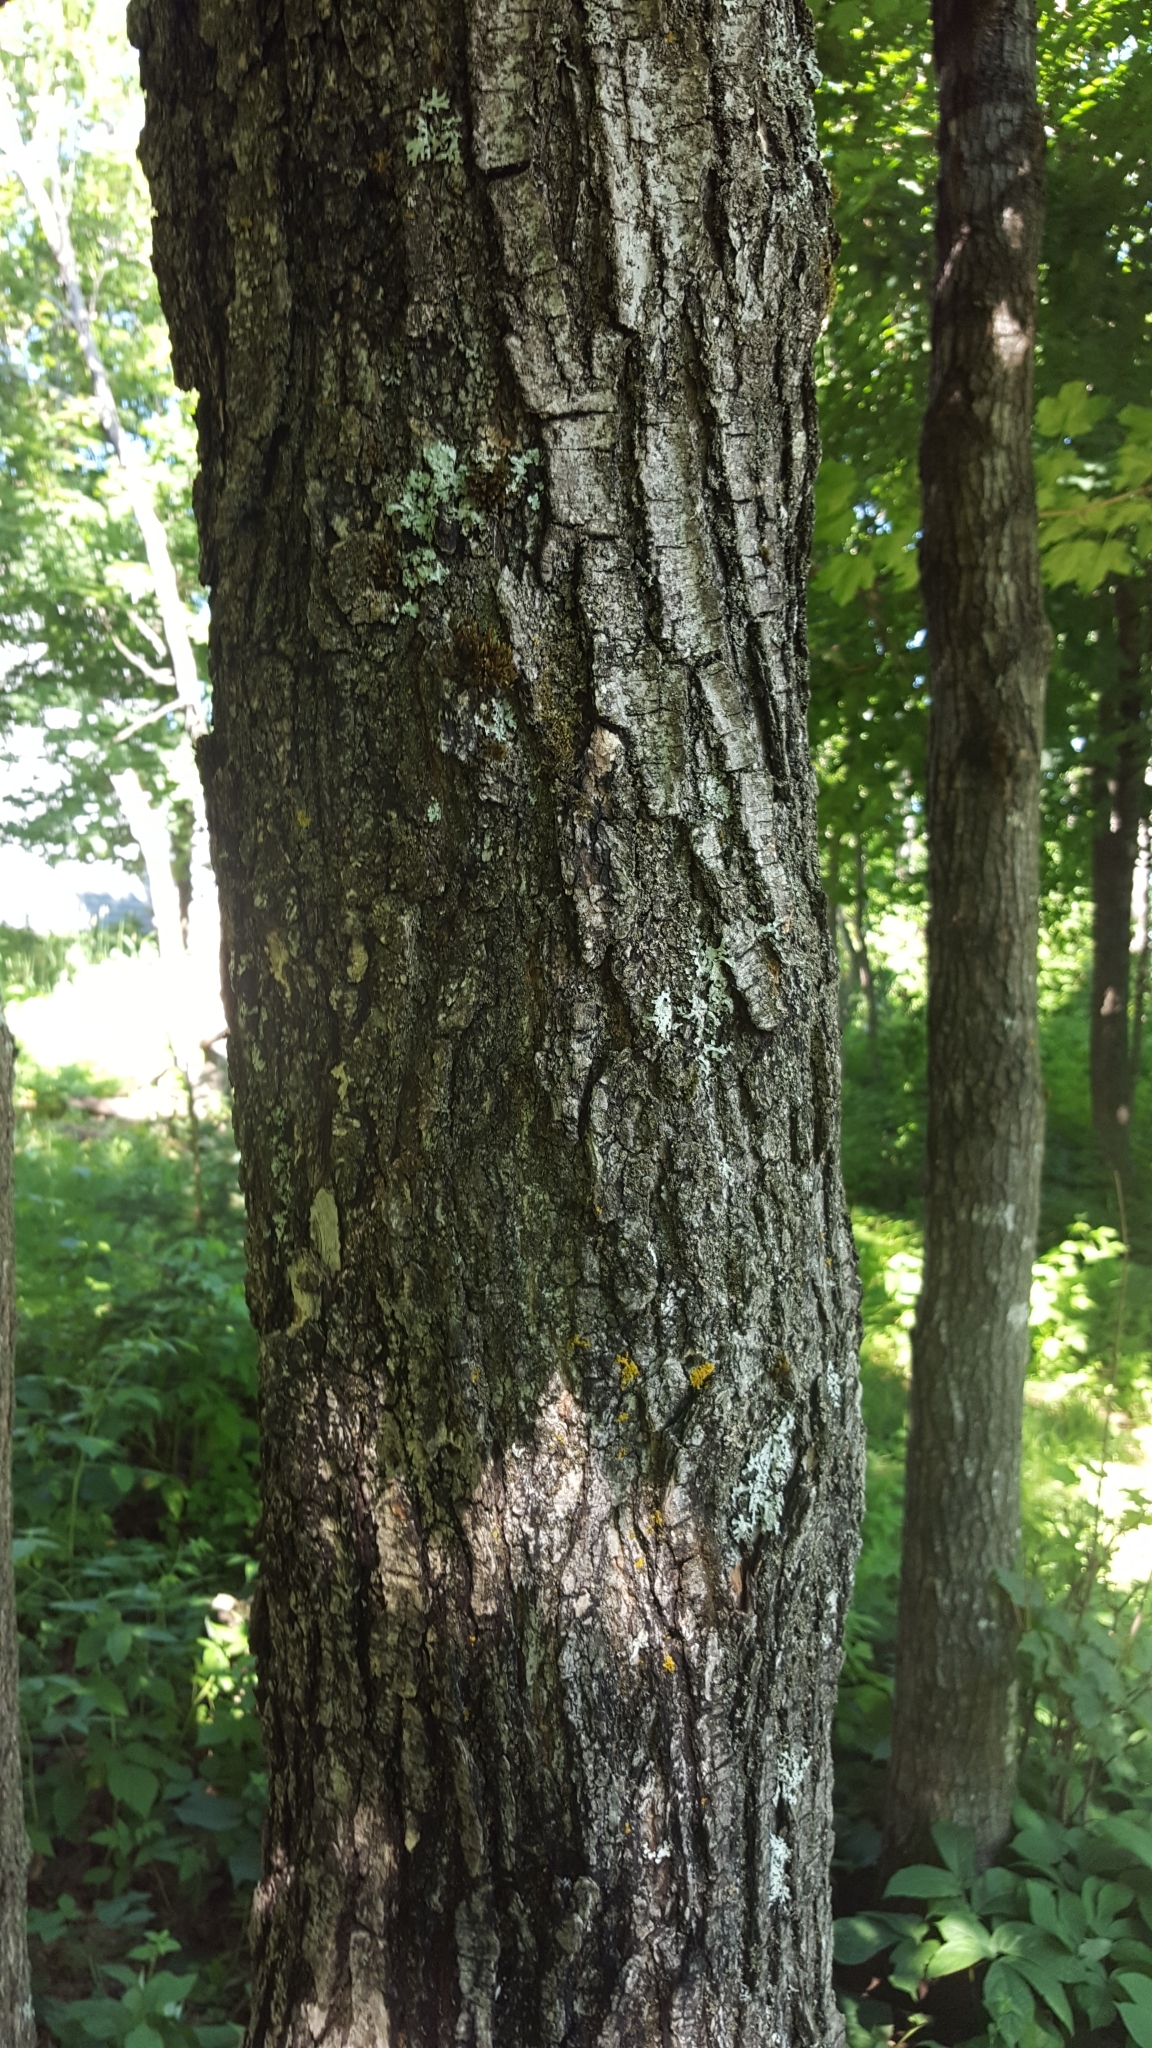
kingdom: Plantae
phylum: Tracheophyta
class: Magnoliopsida
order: Sapindales
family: Sapindaceae
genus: Acer
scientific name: Acer saccharum
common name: Sugar maple
